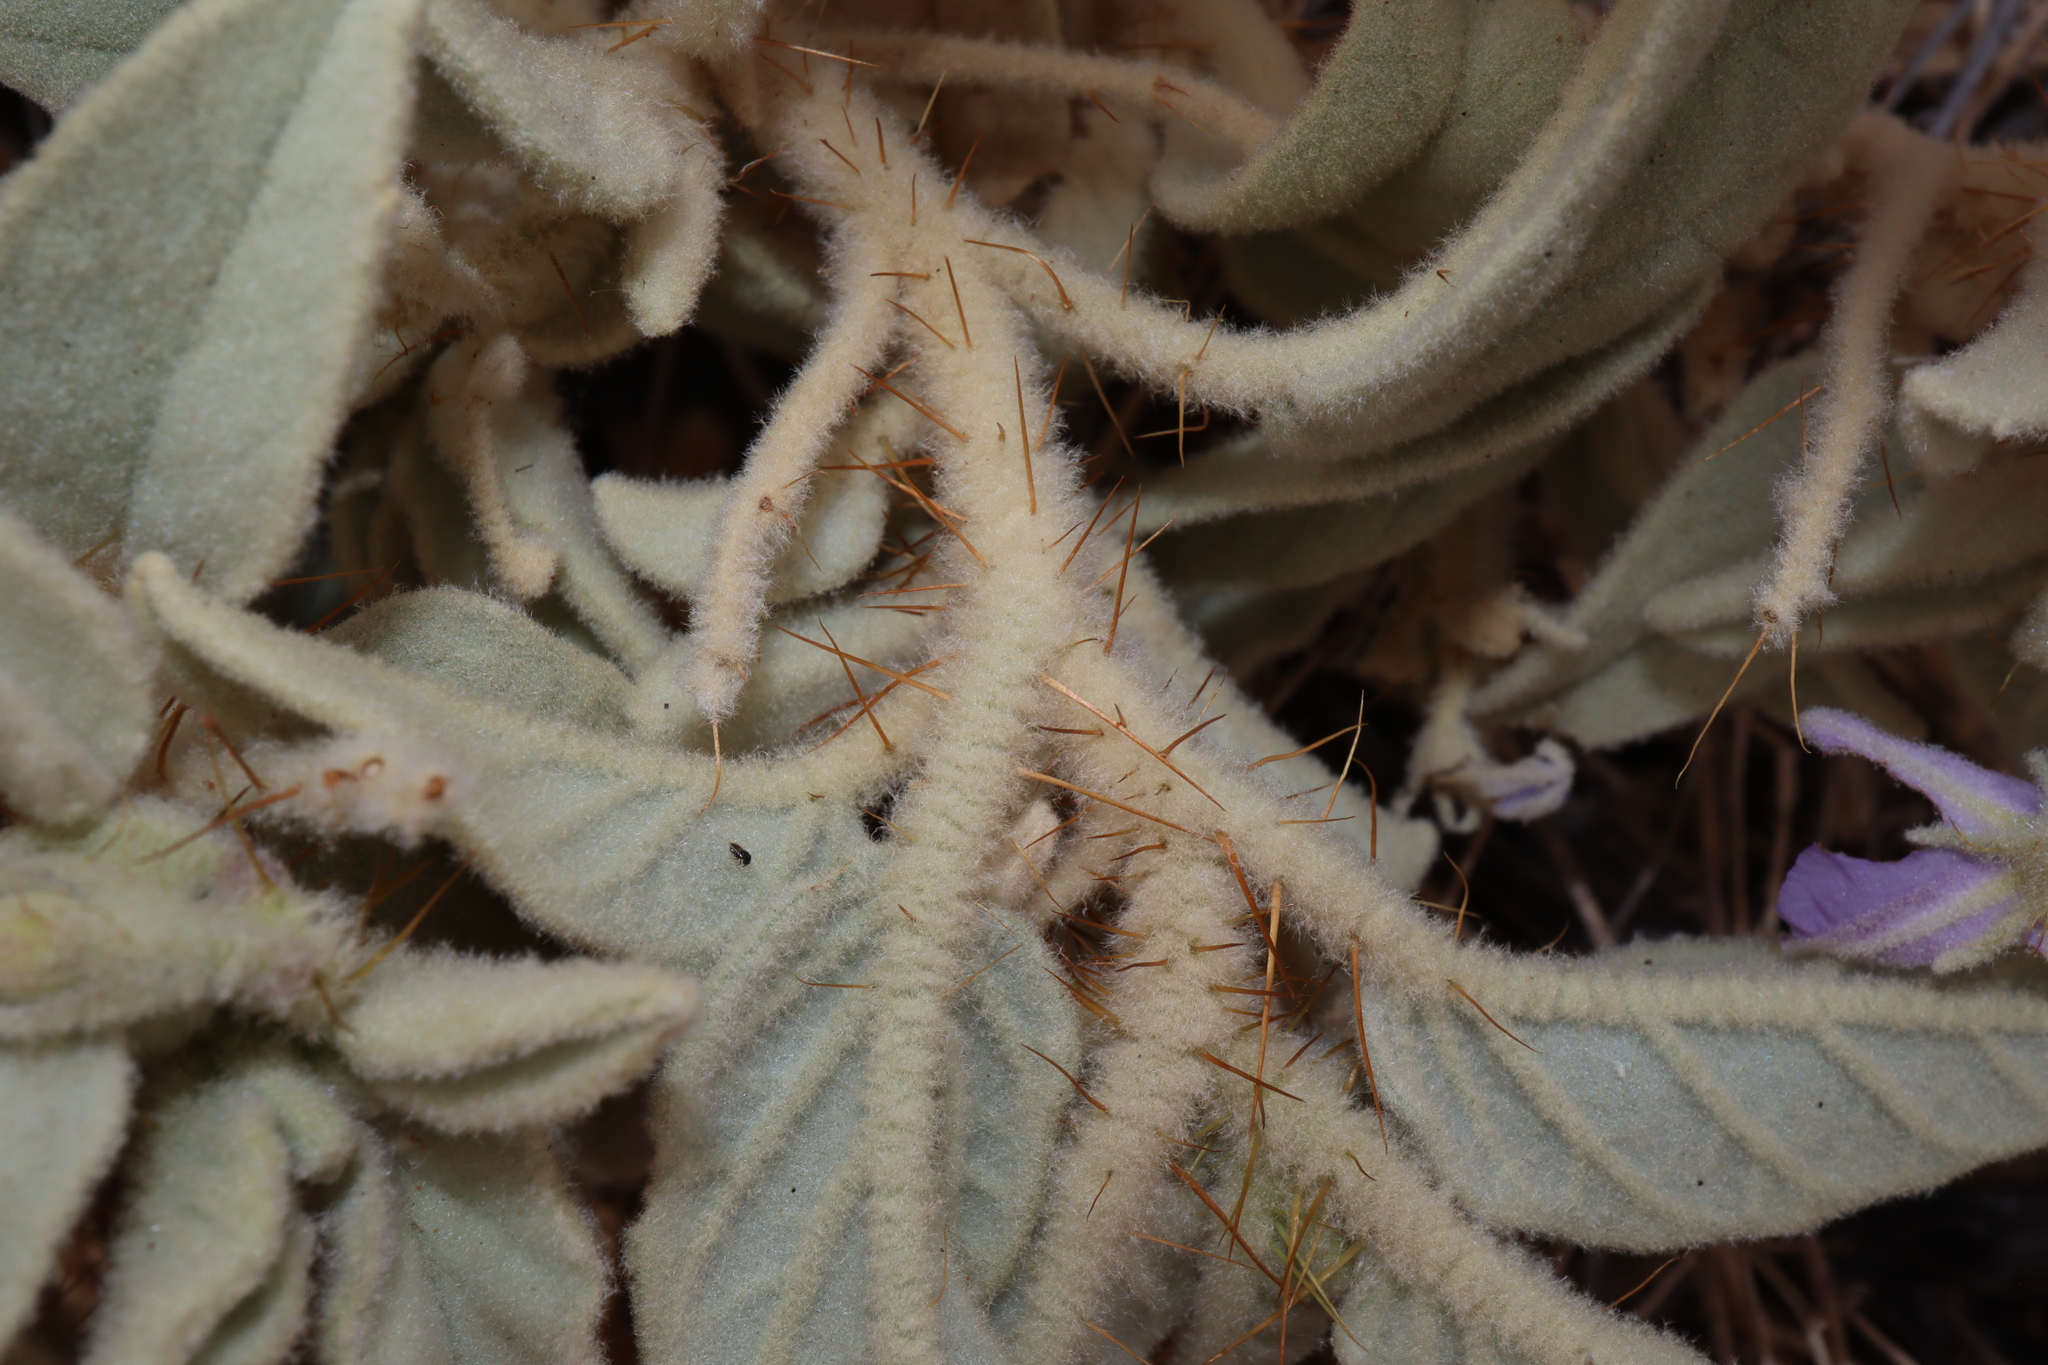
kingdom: Plantae
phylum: Tracheophyta
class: Magnoliopsida
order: Solanales
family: Solanaceae
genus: Solanum
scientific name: Solanum ellipticum
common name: Potato-bush
